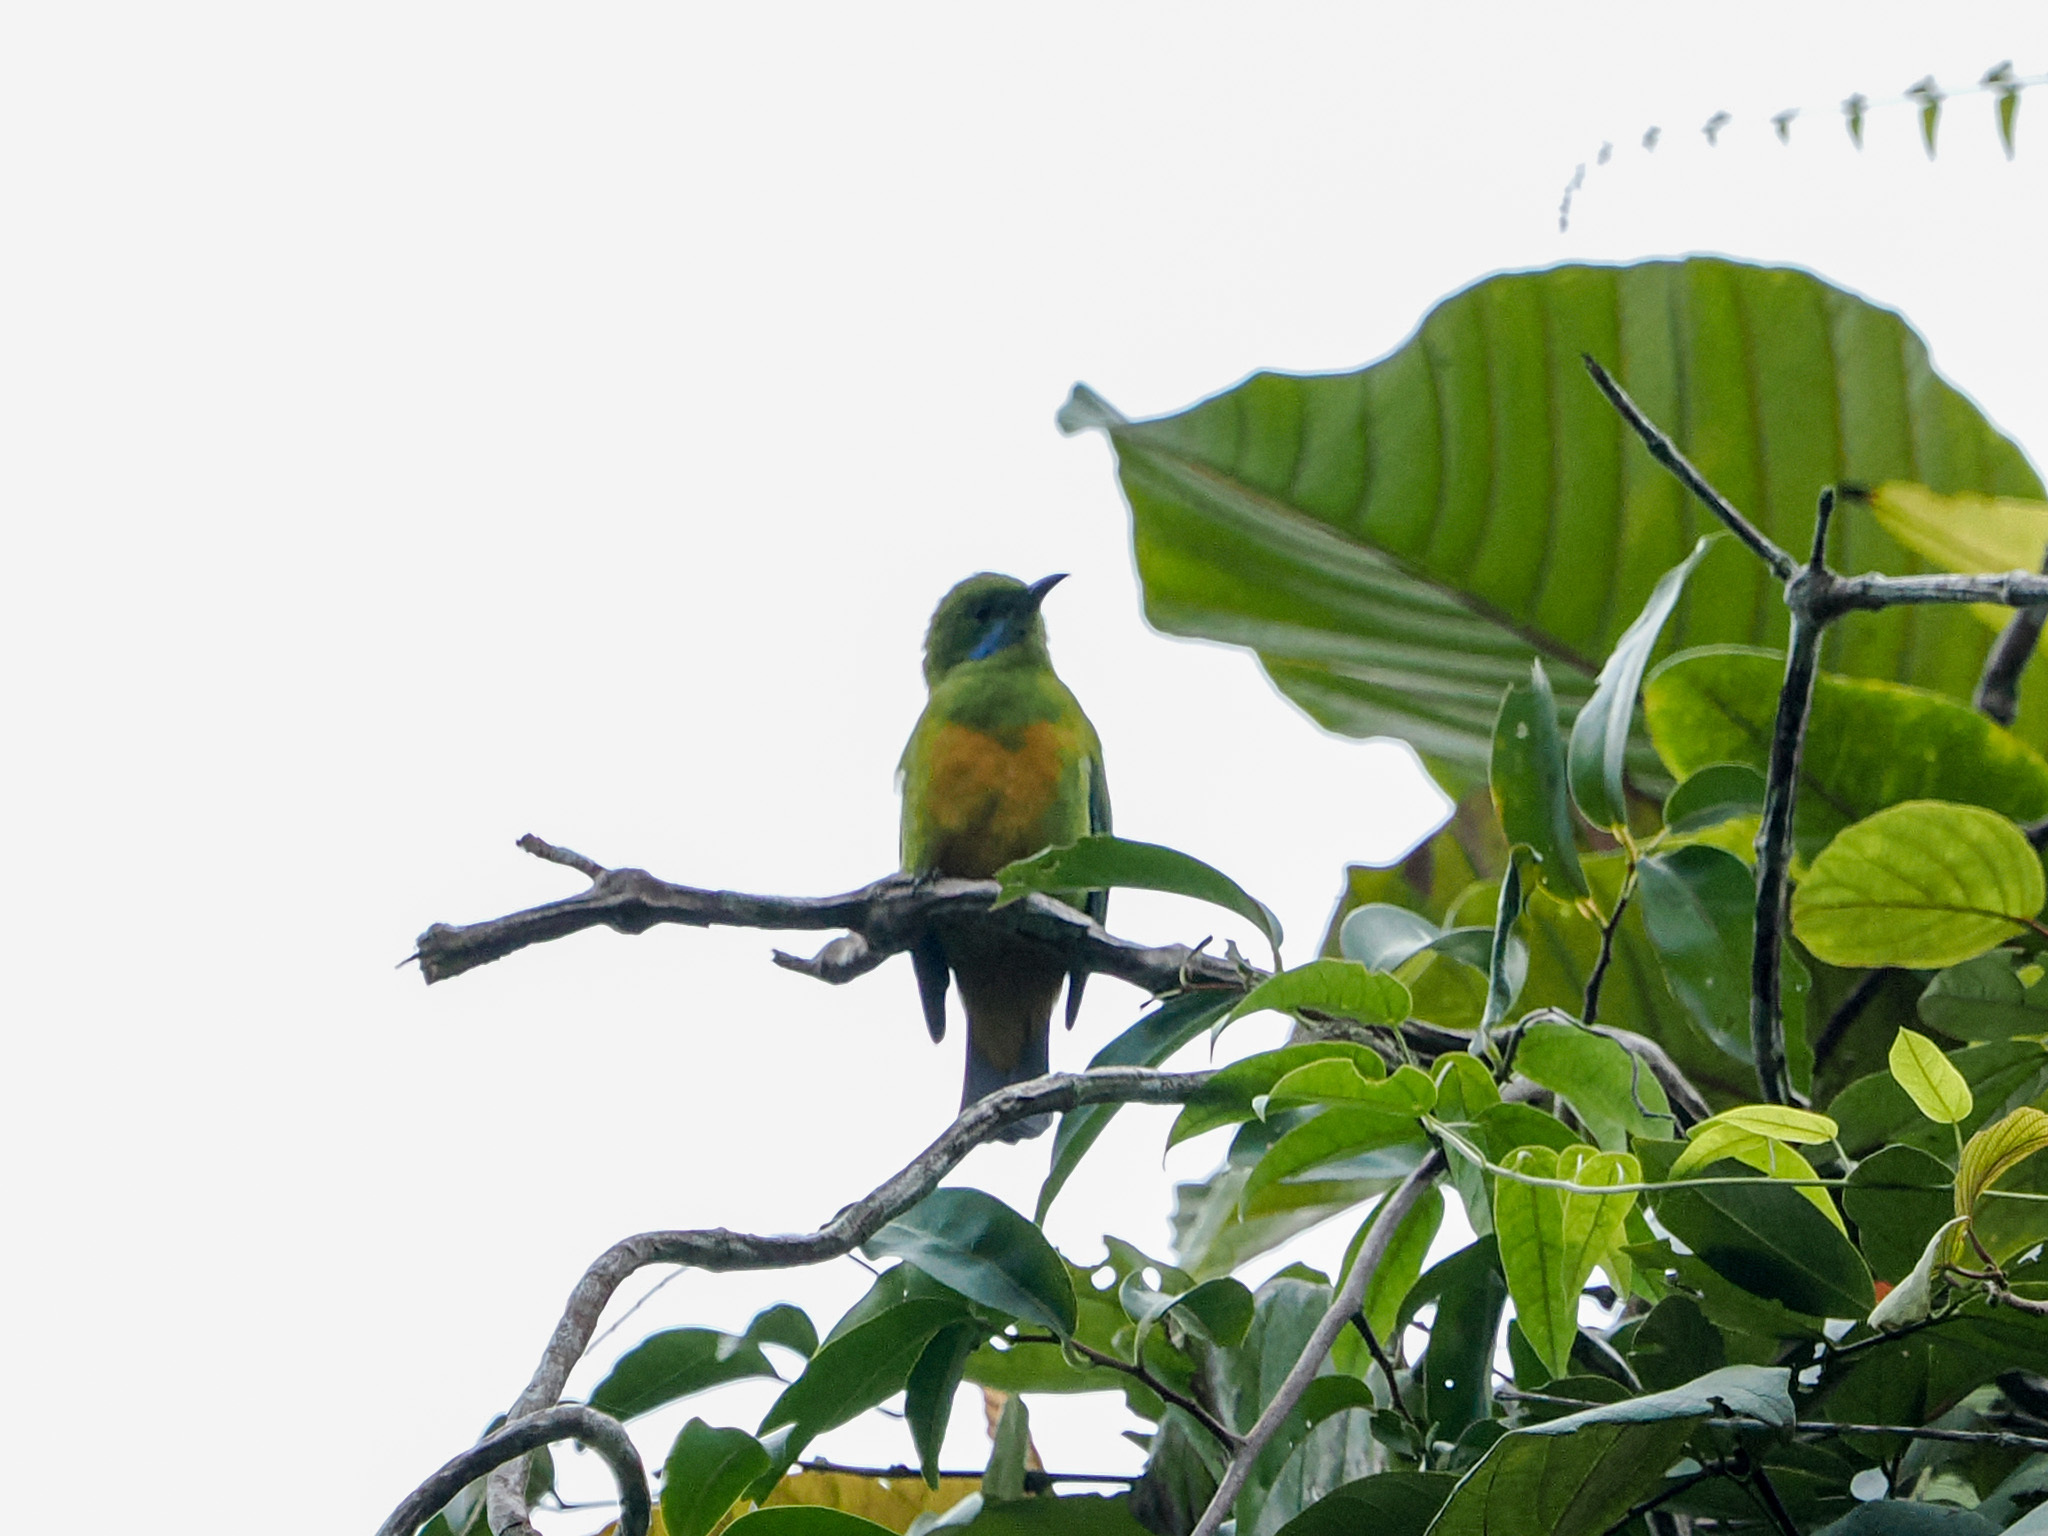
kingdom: Animalia
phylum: Chordata
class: Aves
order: Passeriformes
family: Chloropseidae
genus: Chloropsis
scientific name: Chloropsis hardwickii
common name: Orange-bellied leafbird
